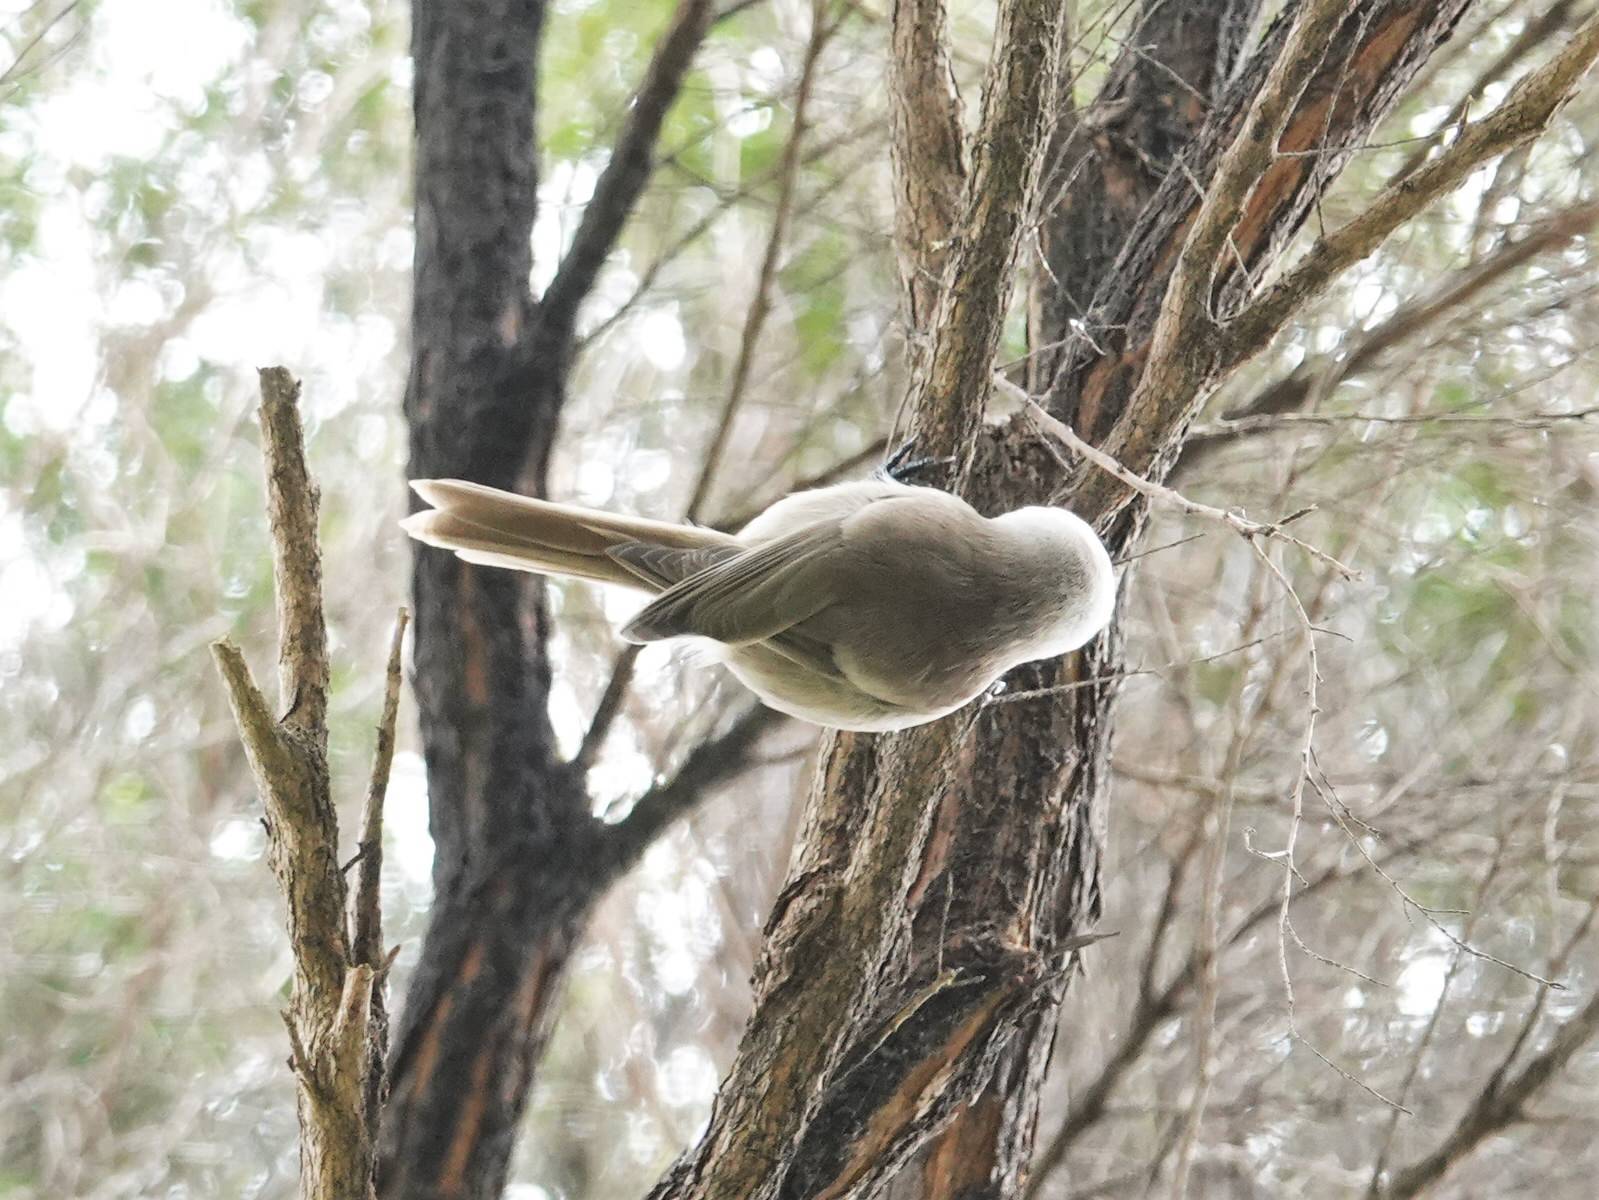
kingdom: Animalia
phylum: Chordata
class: Aves
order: Passeriformes
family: Acanthizidae
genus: Mohoua
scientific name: Mohoua albicilla
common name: Whitehead
